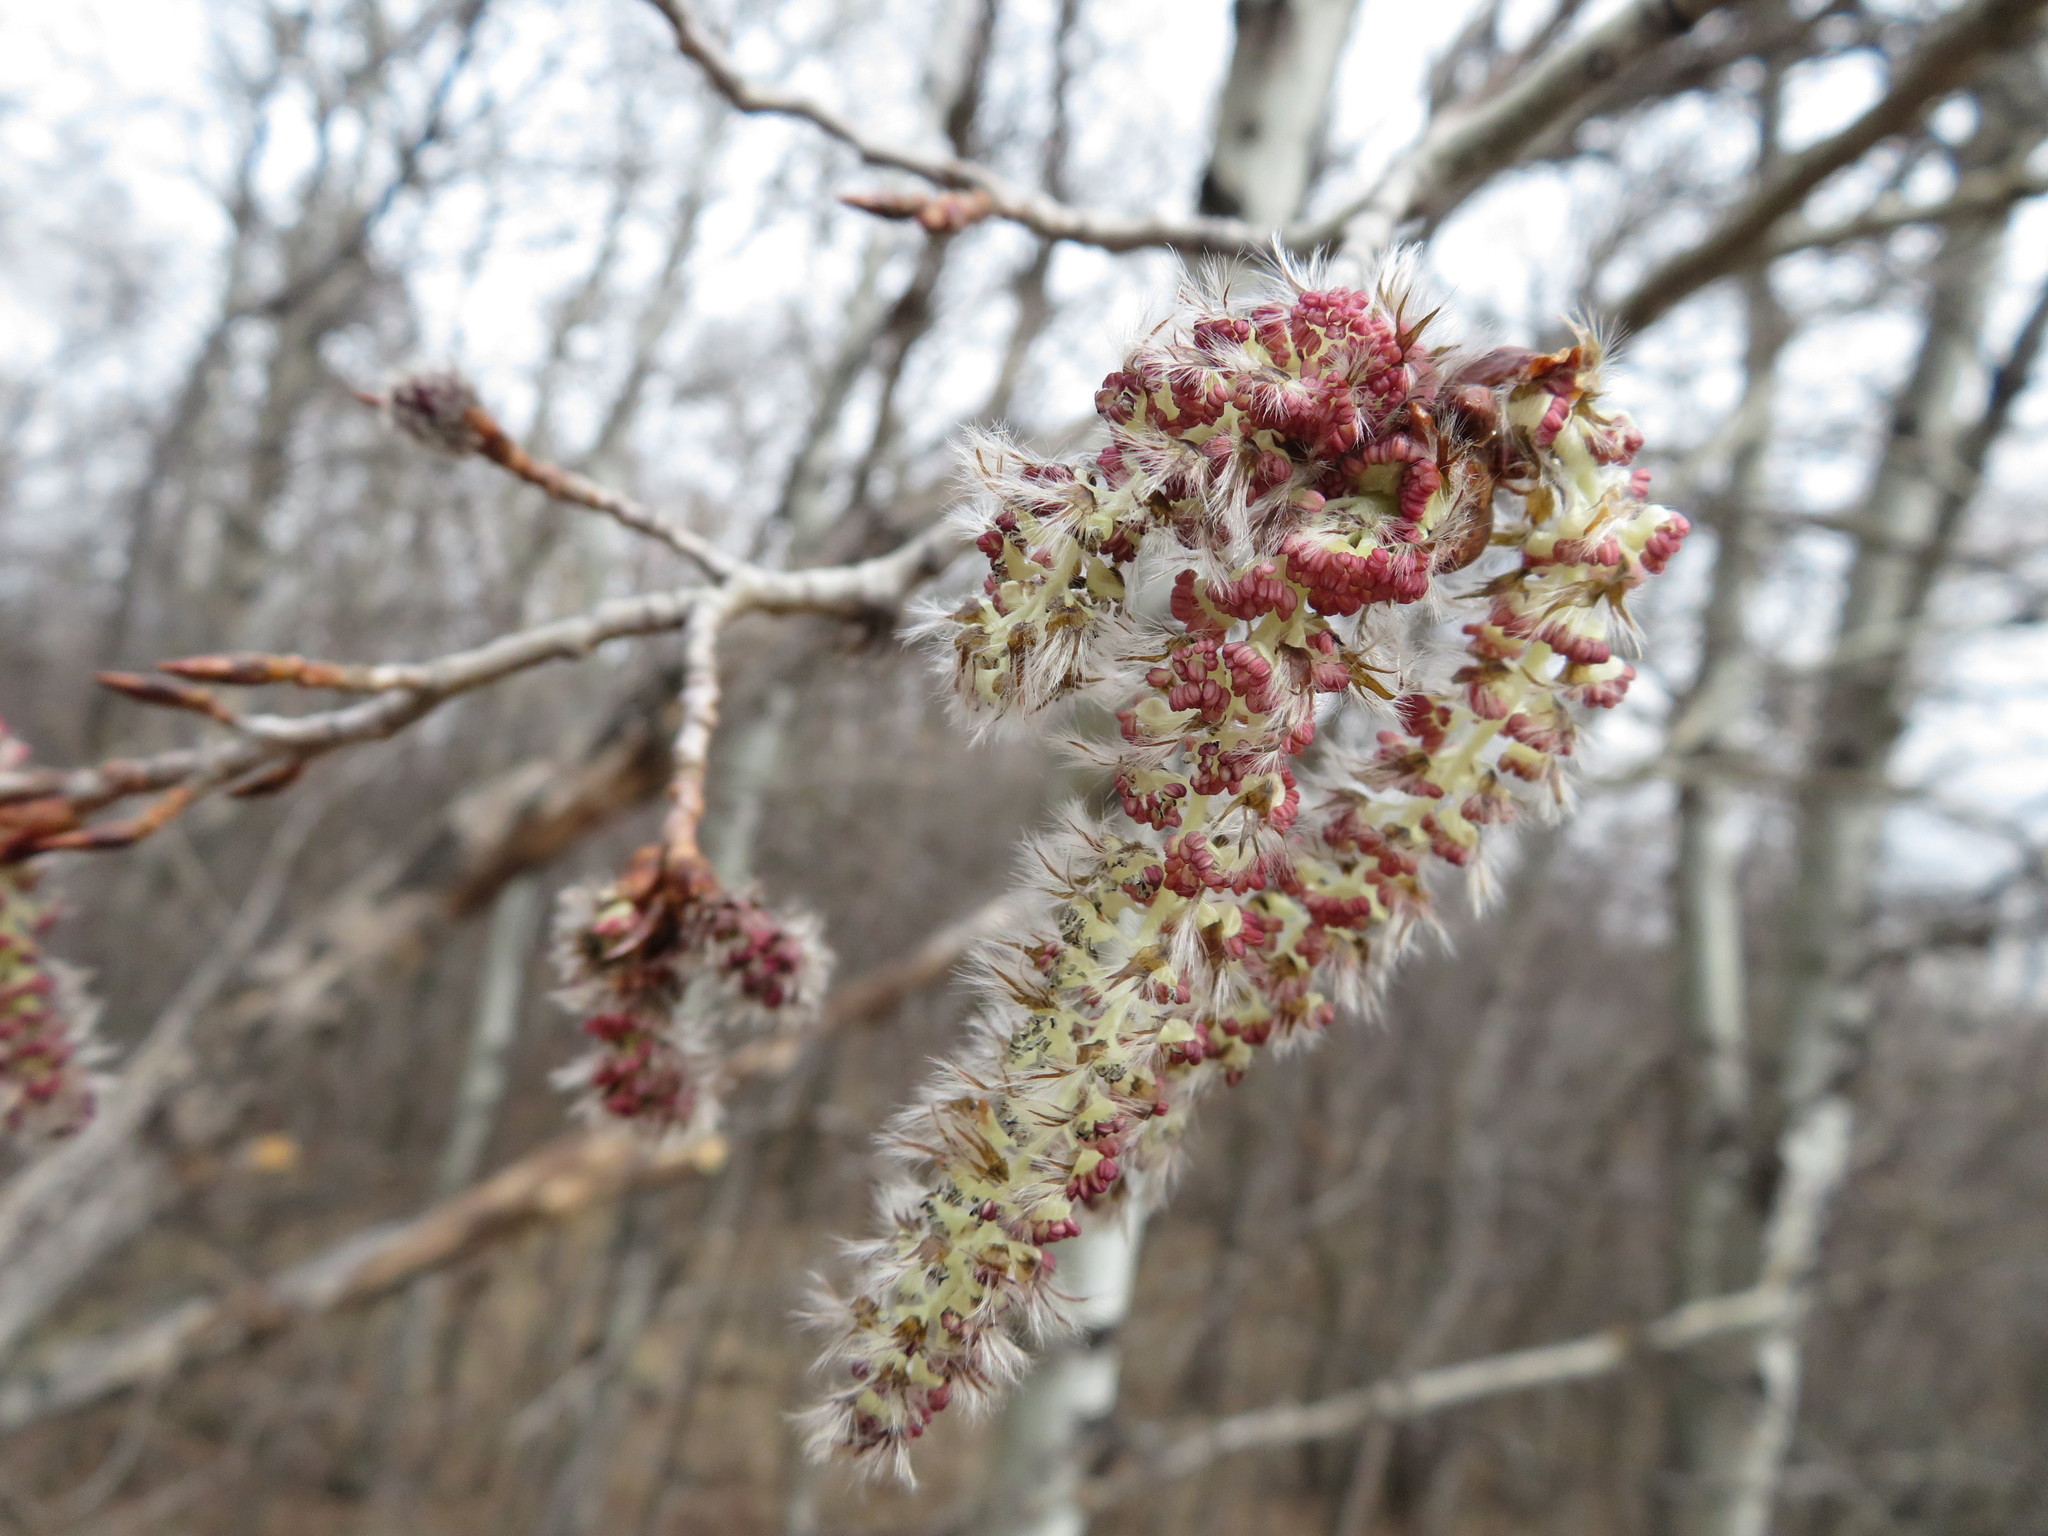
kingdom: Plantae
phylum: Tracheophyta
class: Magnoliopsida
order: Malpighiales
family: Salicaceae
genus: Populus
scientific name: Populus tremuloides
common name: Quaking aspen
